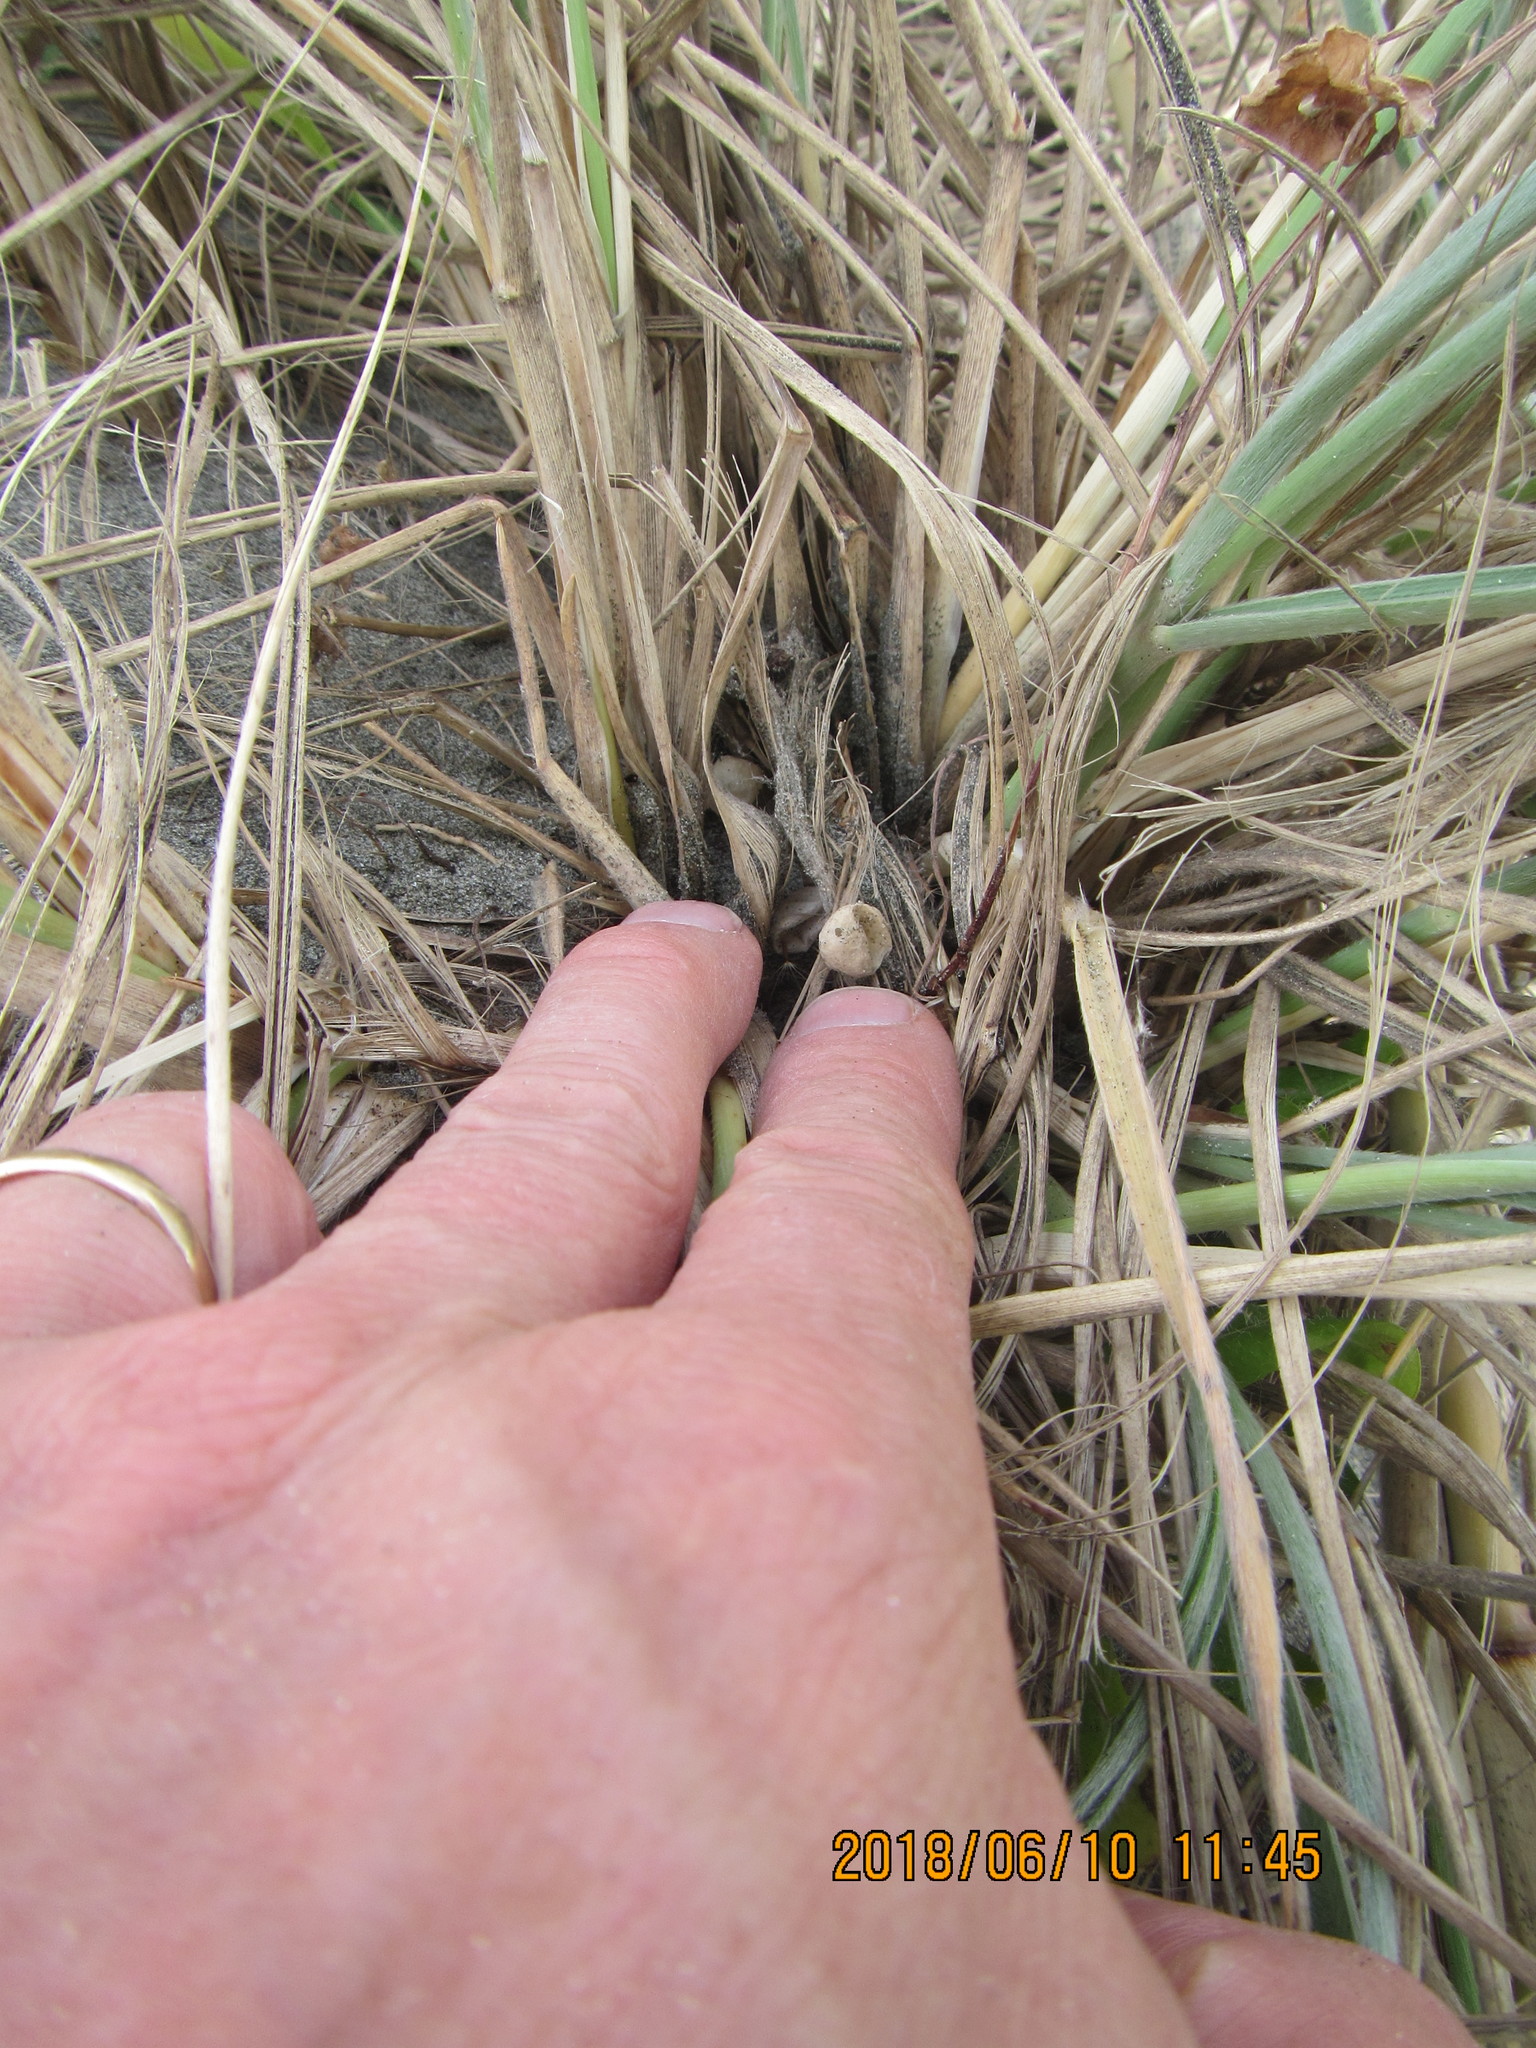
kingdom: Animalia
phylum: Arthropoda
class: Arachnida
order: Araneae
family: Thomisidae
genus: Sidymella
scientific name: Sidymella trapezia
